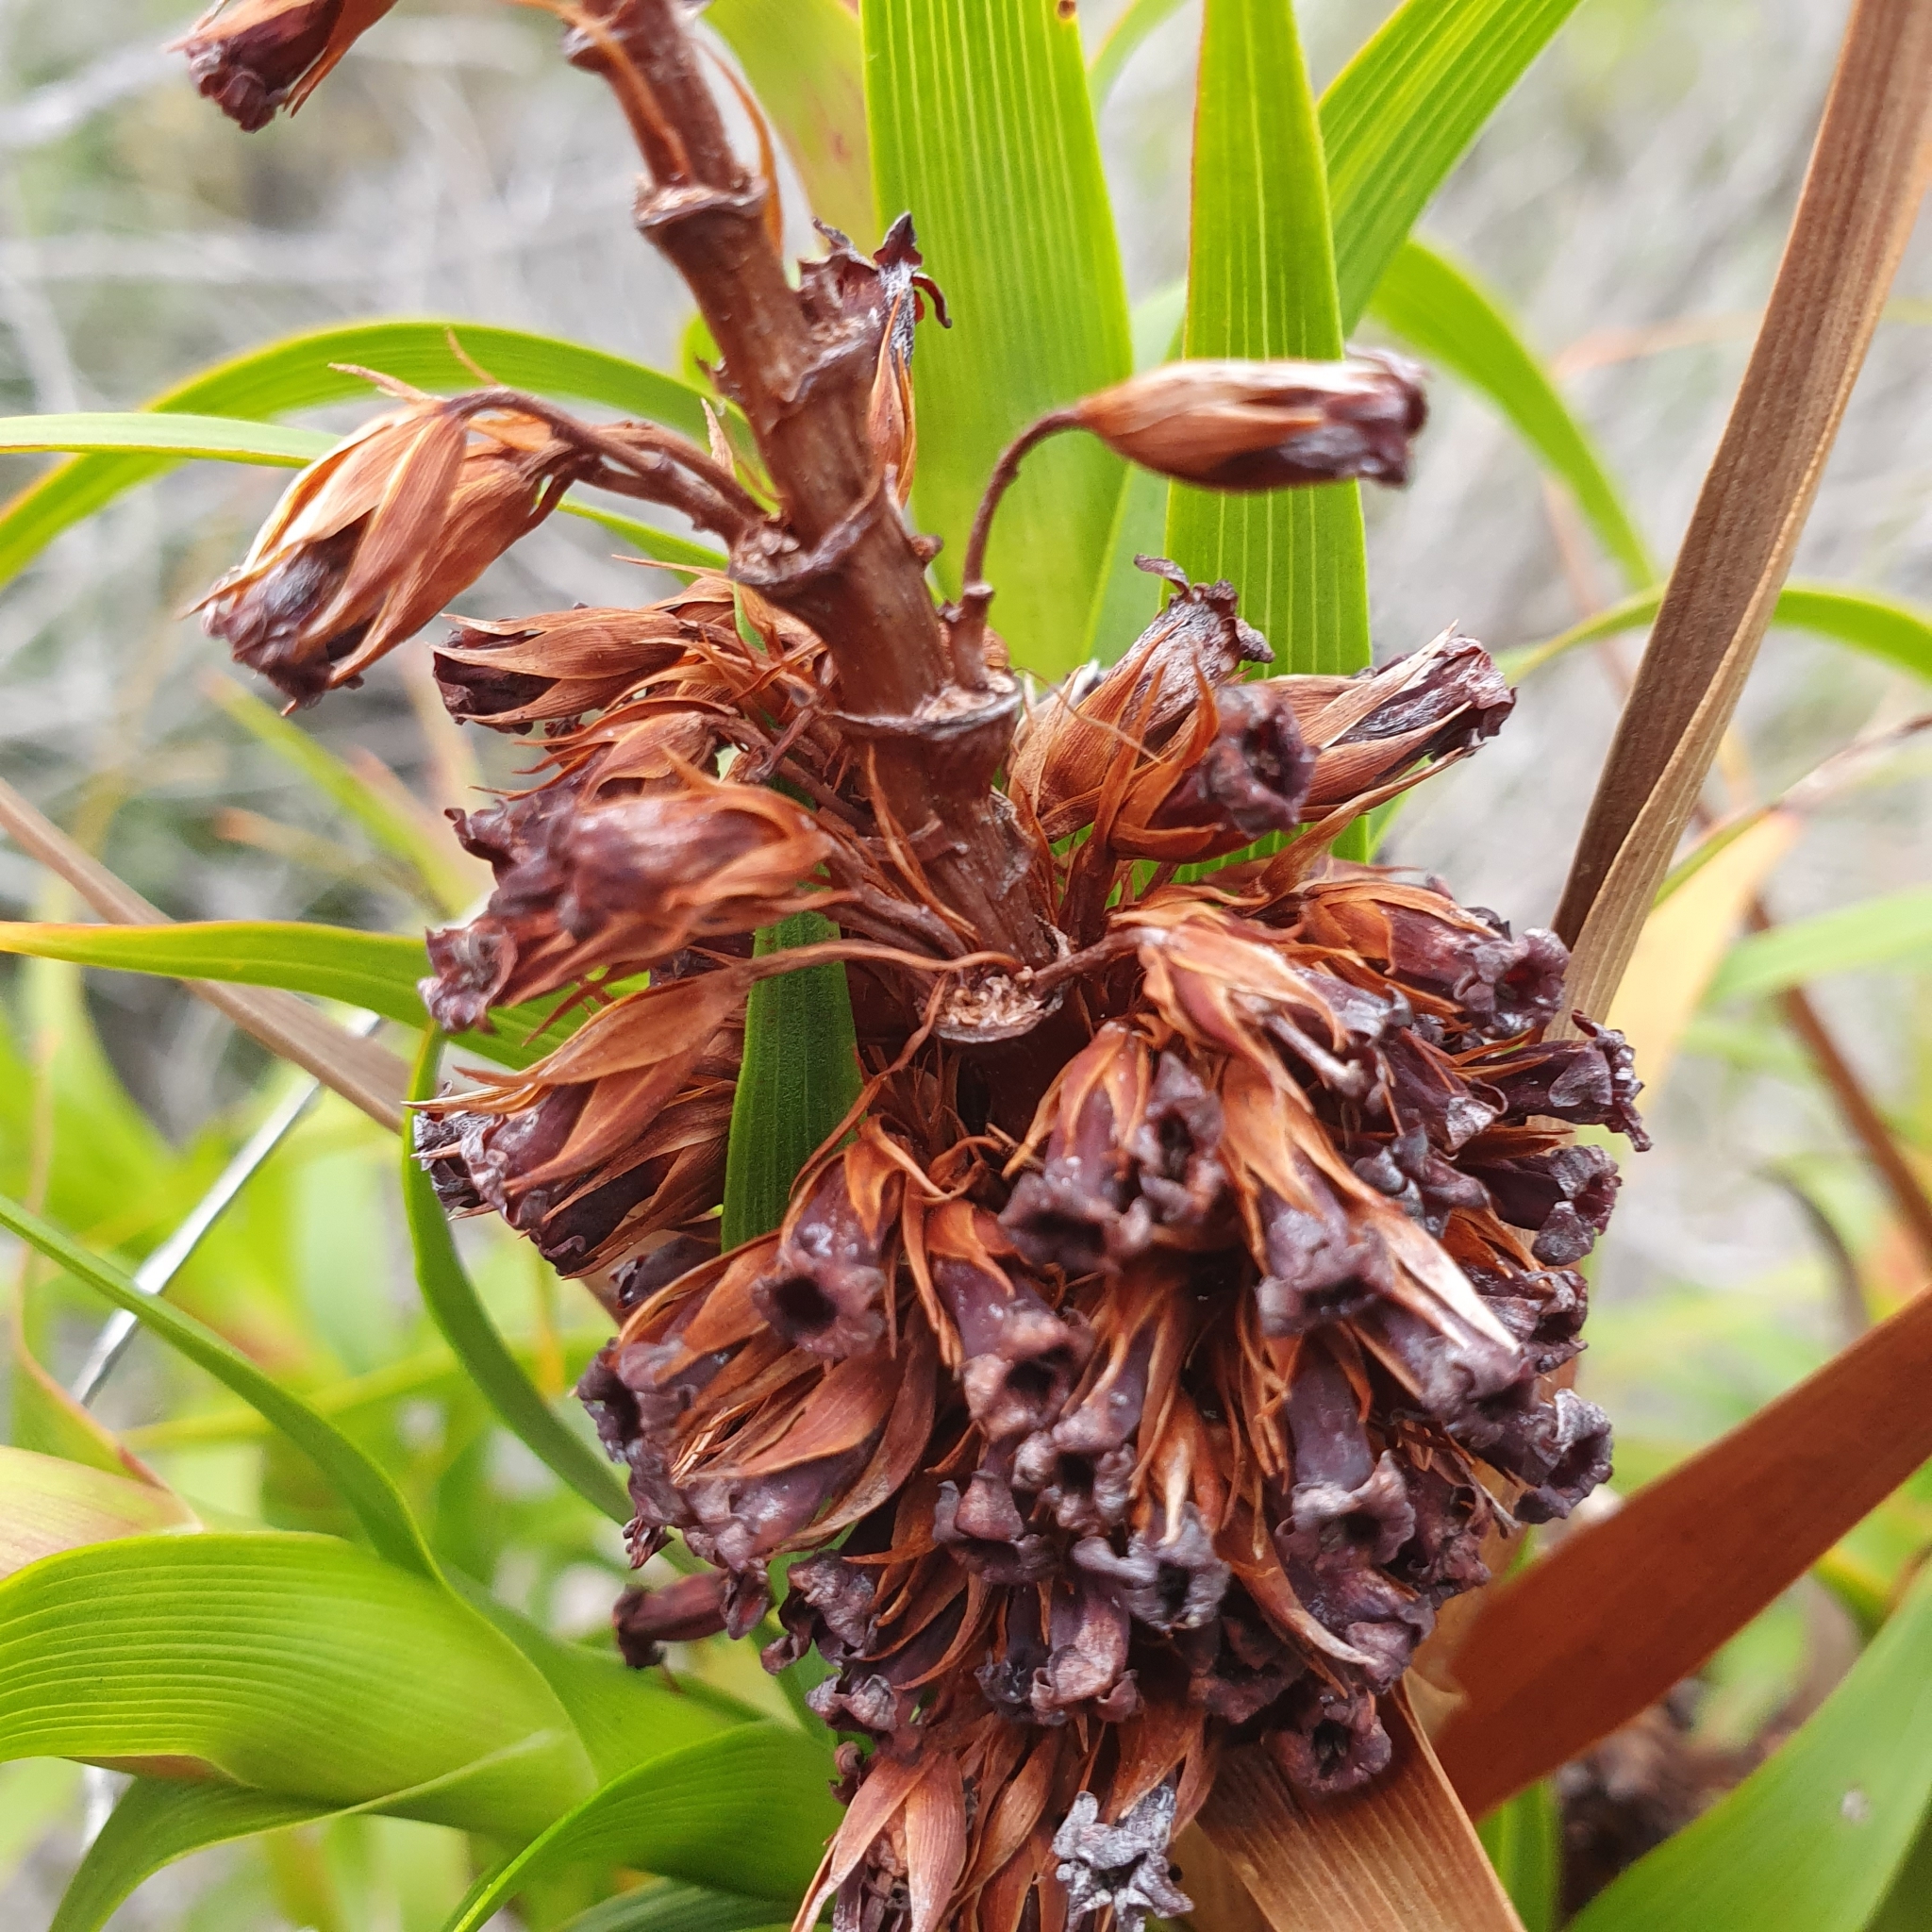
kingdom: Plantae
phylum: Tracheophyta
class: Magnoliopsida
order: Ericales
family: Ericaceae
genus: Dracophyllum
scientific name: Dracophyllum oceanicum
